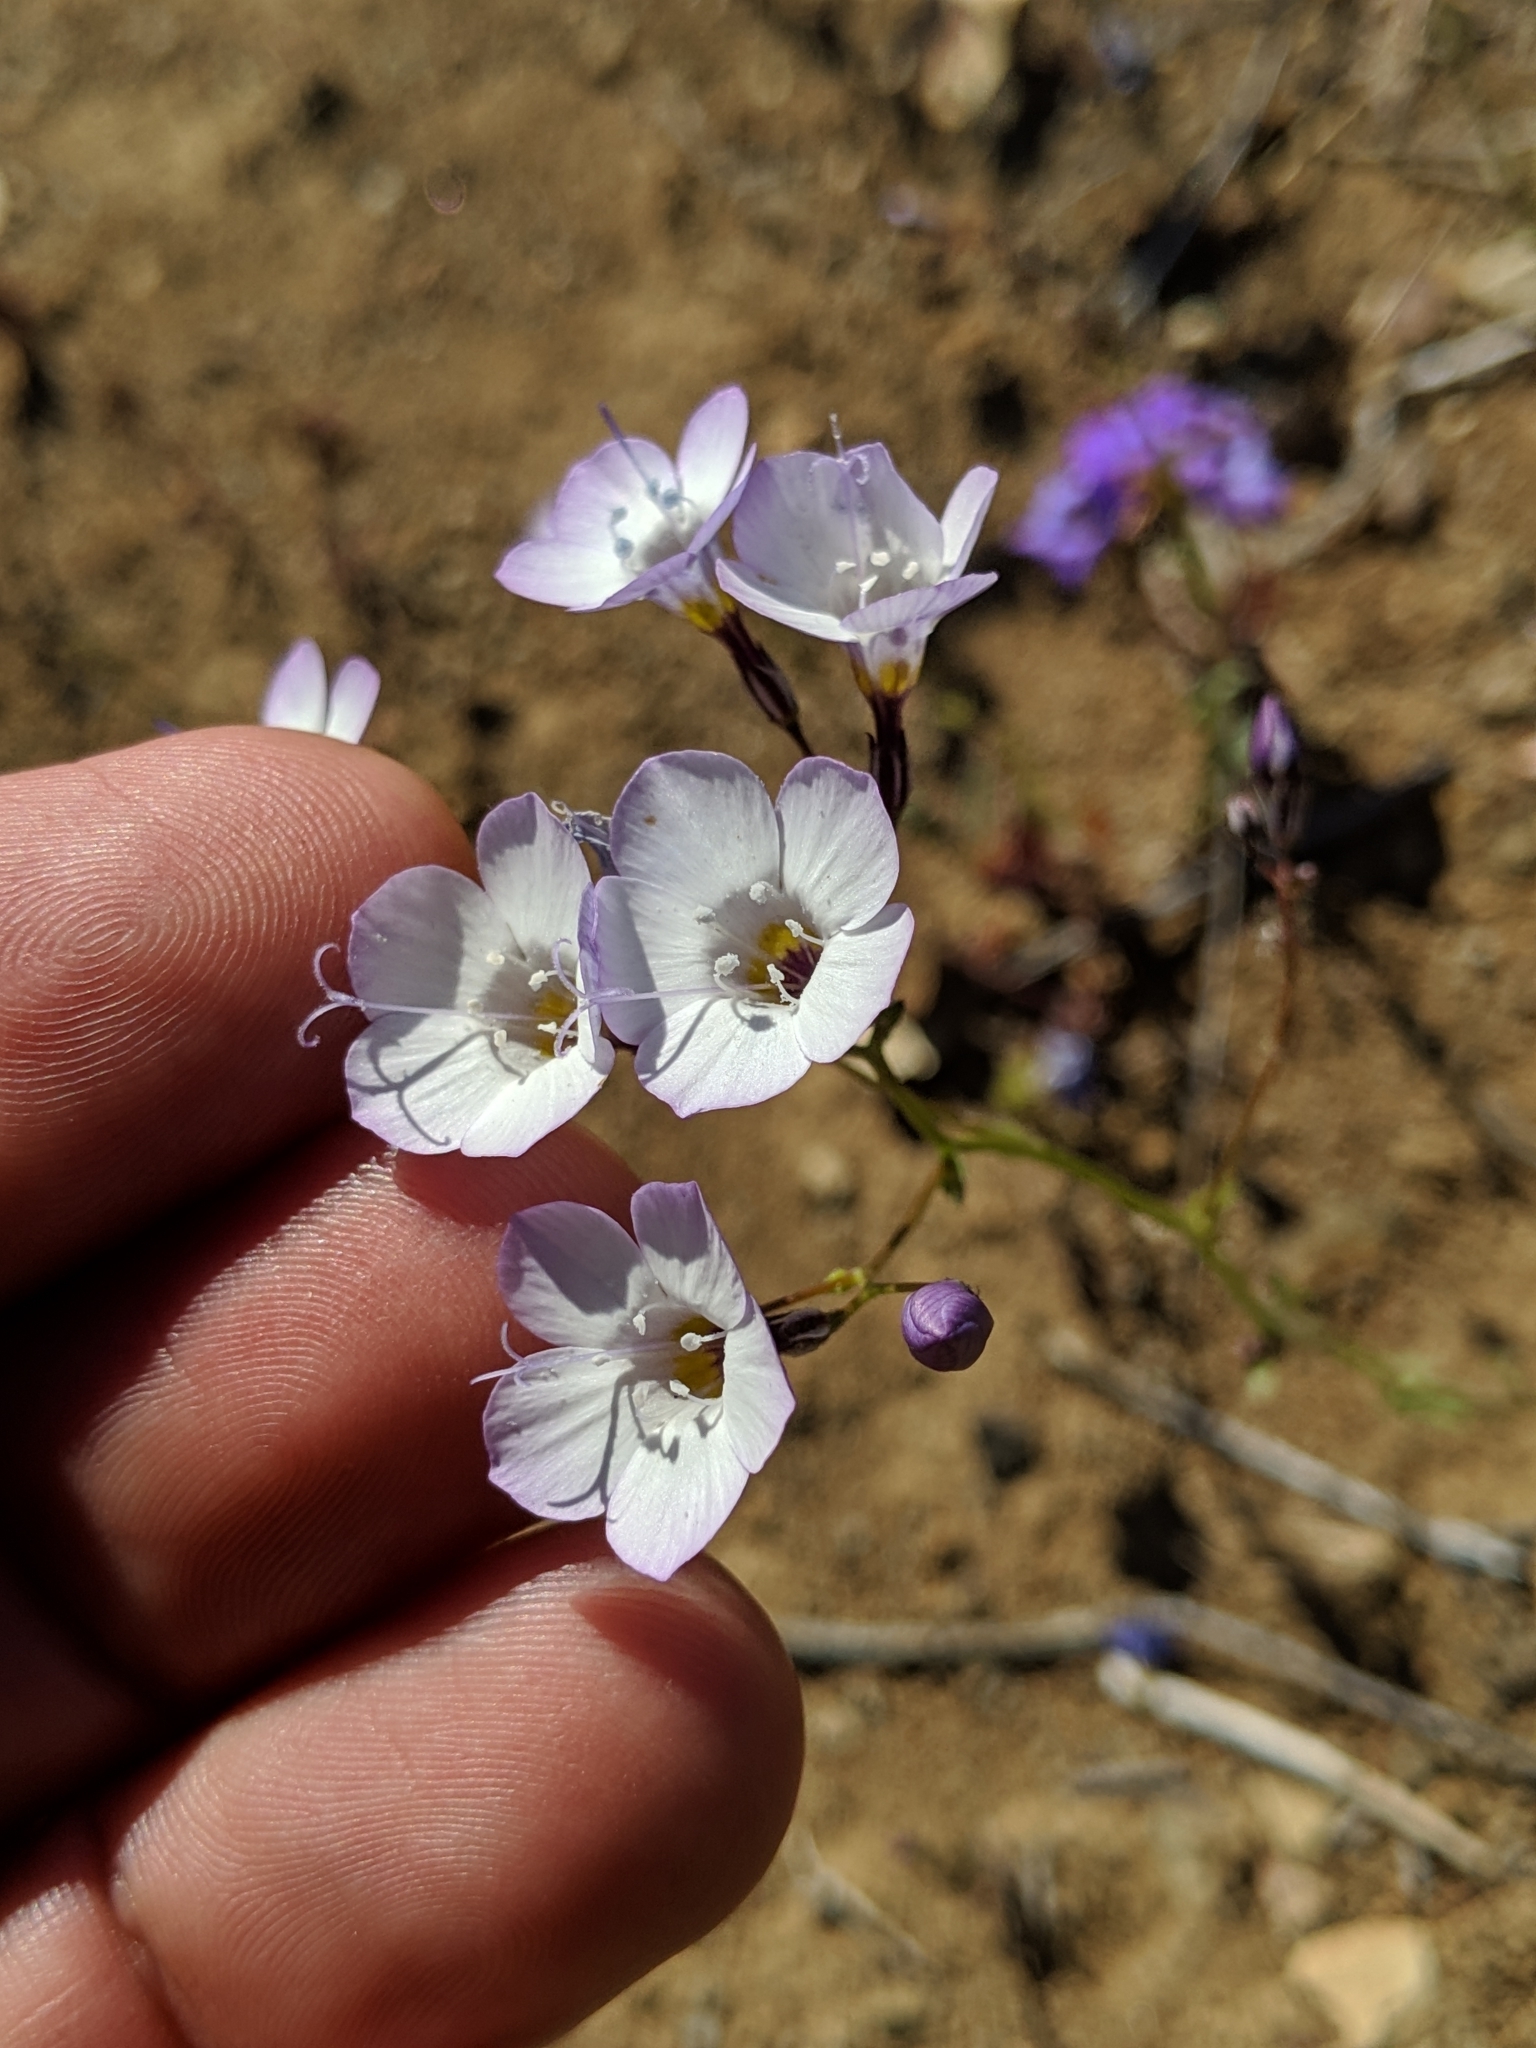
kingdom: Plantae
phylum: Tracheophyta
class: Magnoliopsida
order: Ericales
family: Polemoniaceae
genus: Gilia
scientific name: Gilia latiflora
